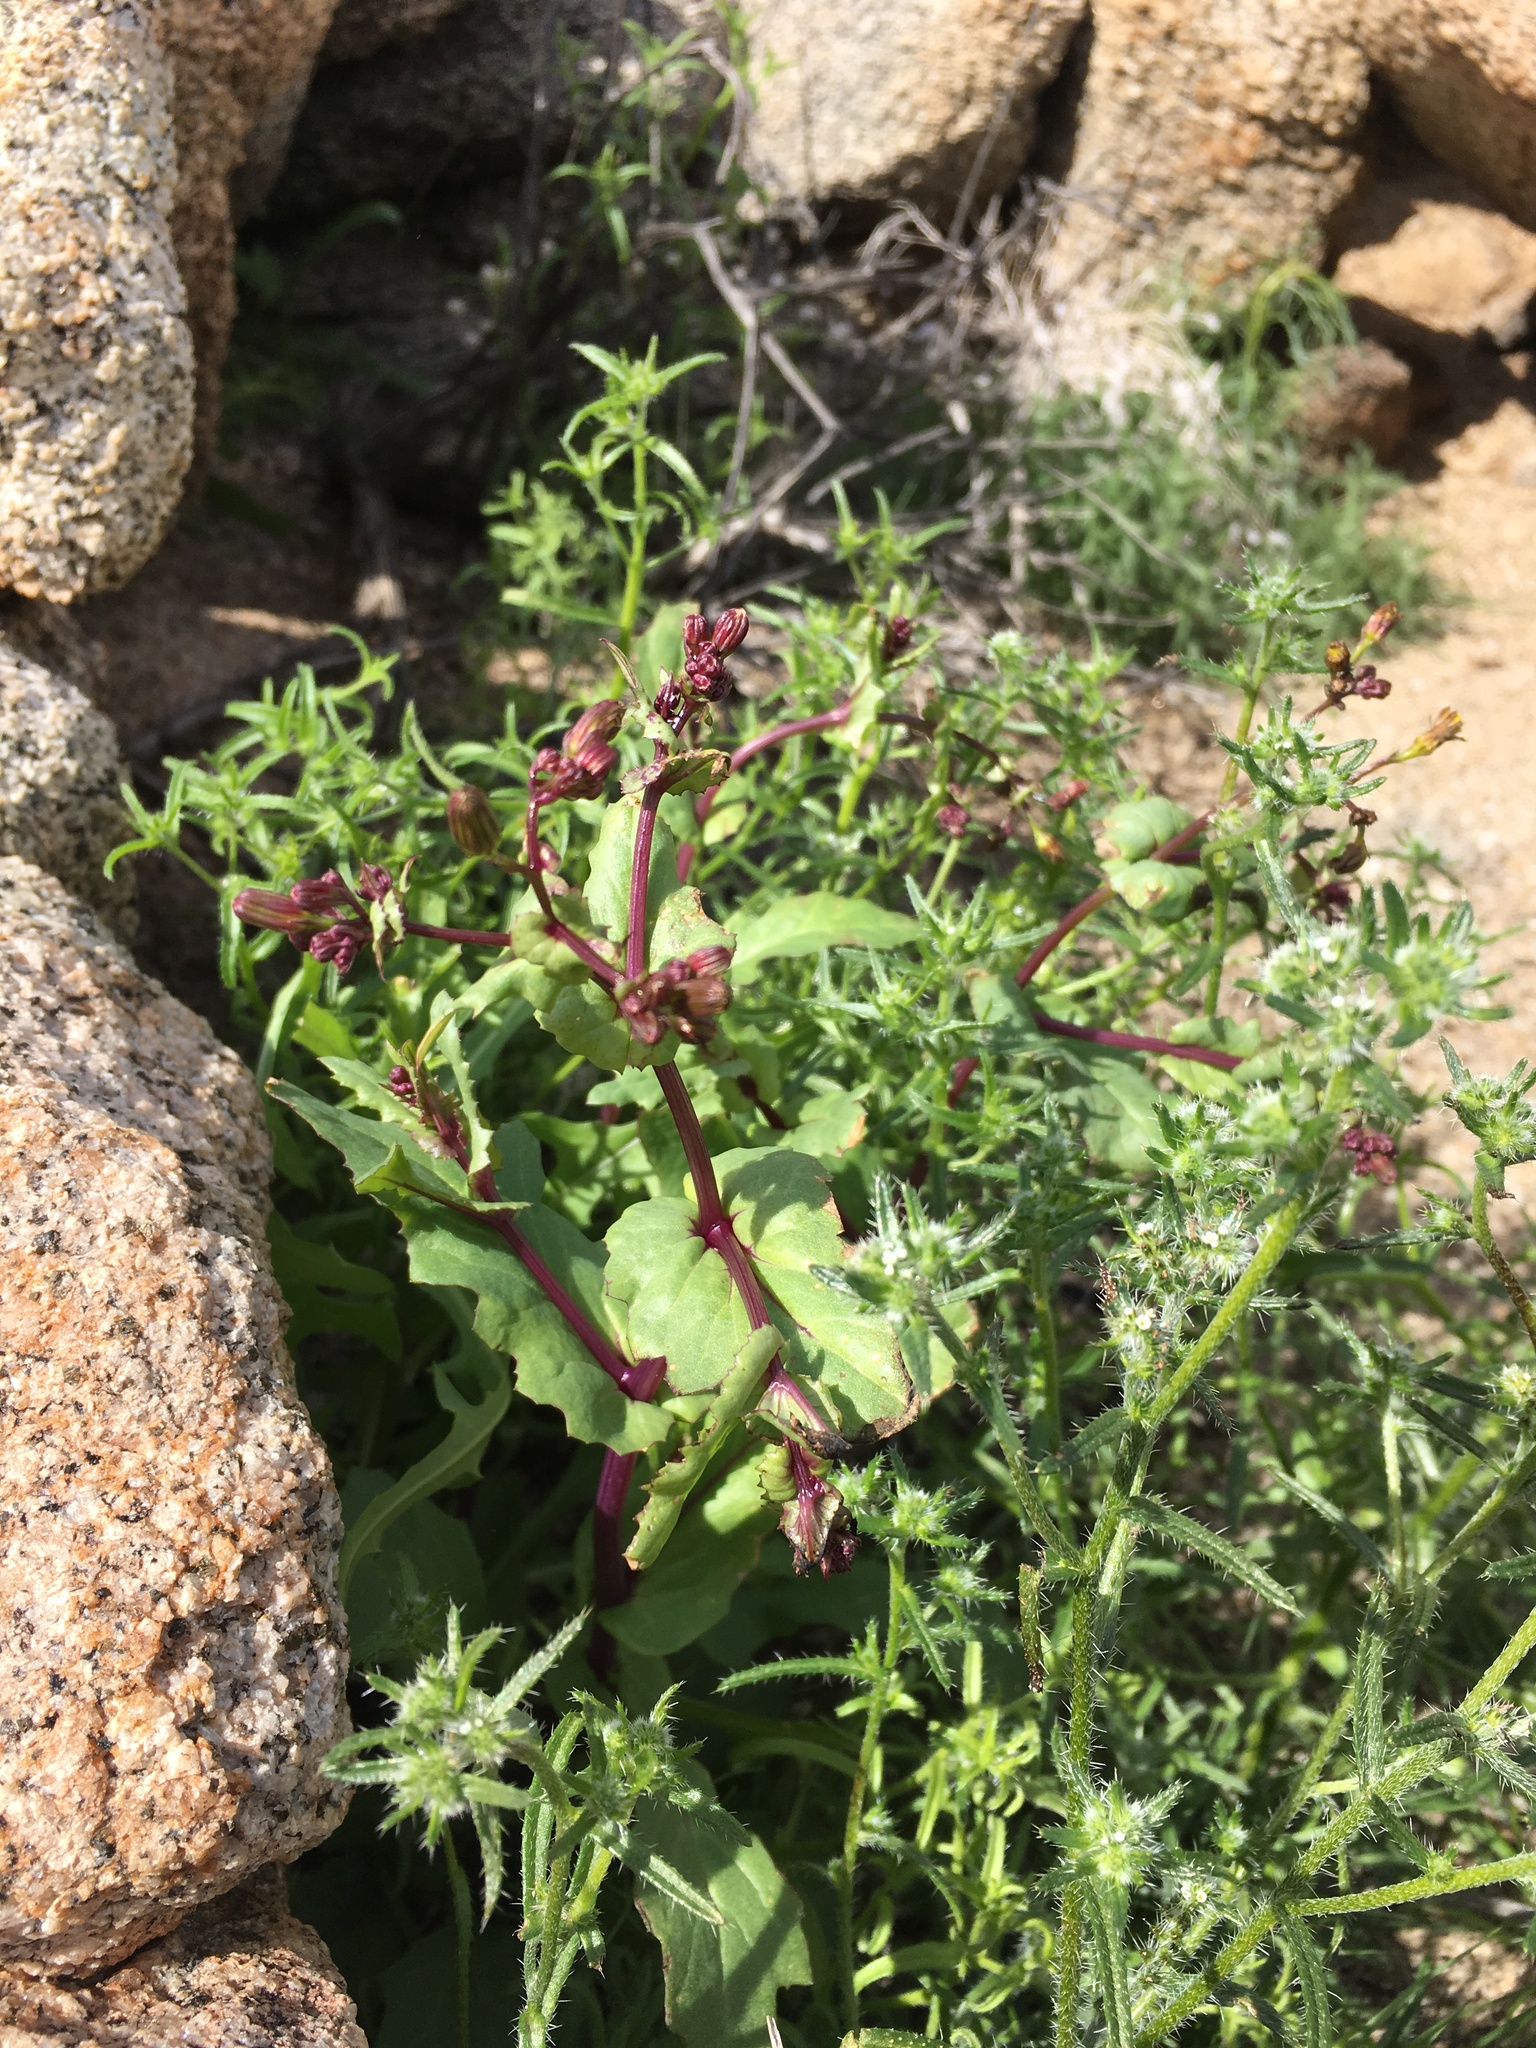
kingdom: Plantae
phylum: Tracheophyta
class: Magnoliopsida
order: Asterales
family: Asteraceae
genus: Senecio
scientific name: Senecio mohavensis
